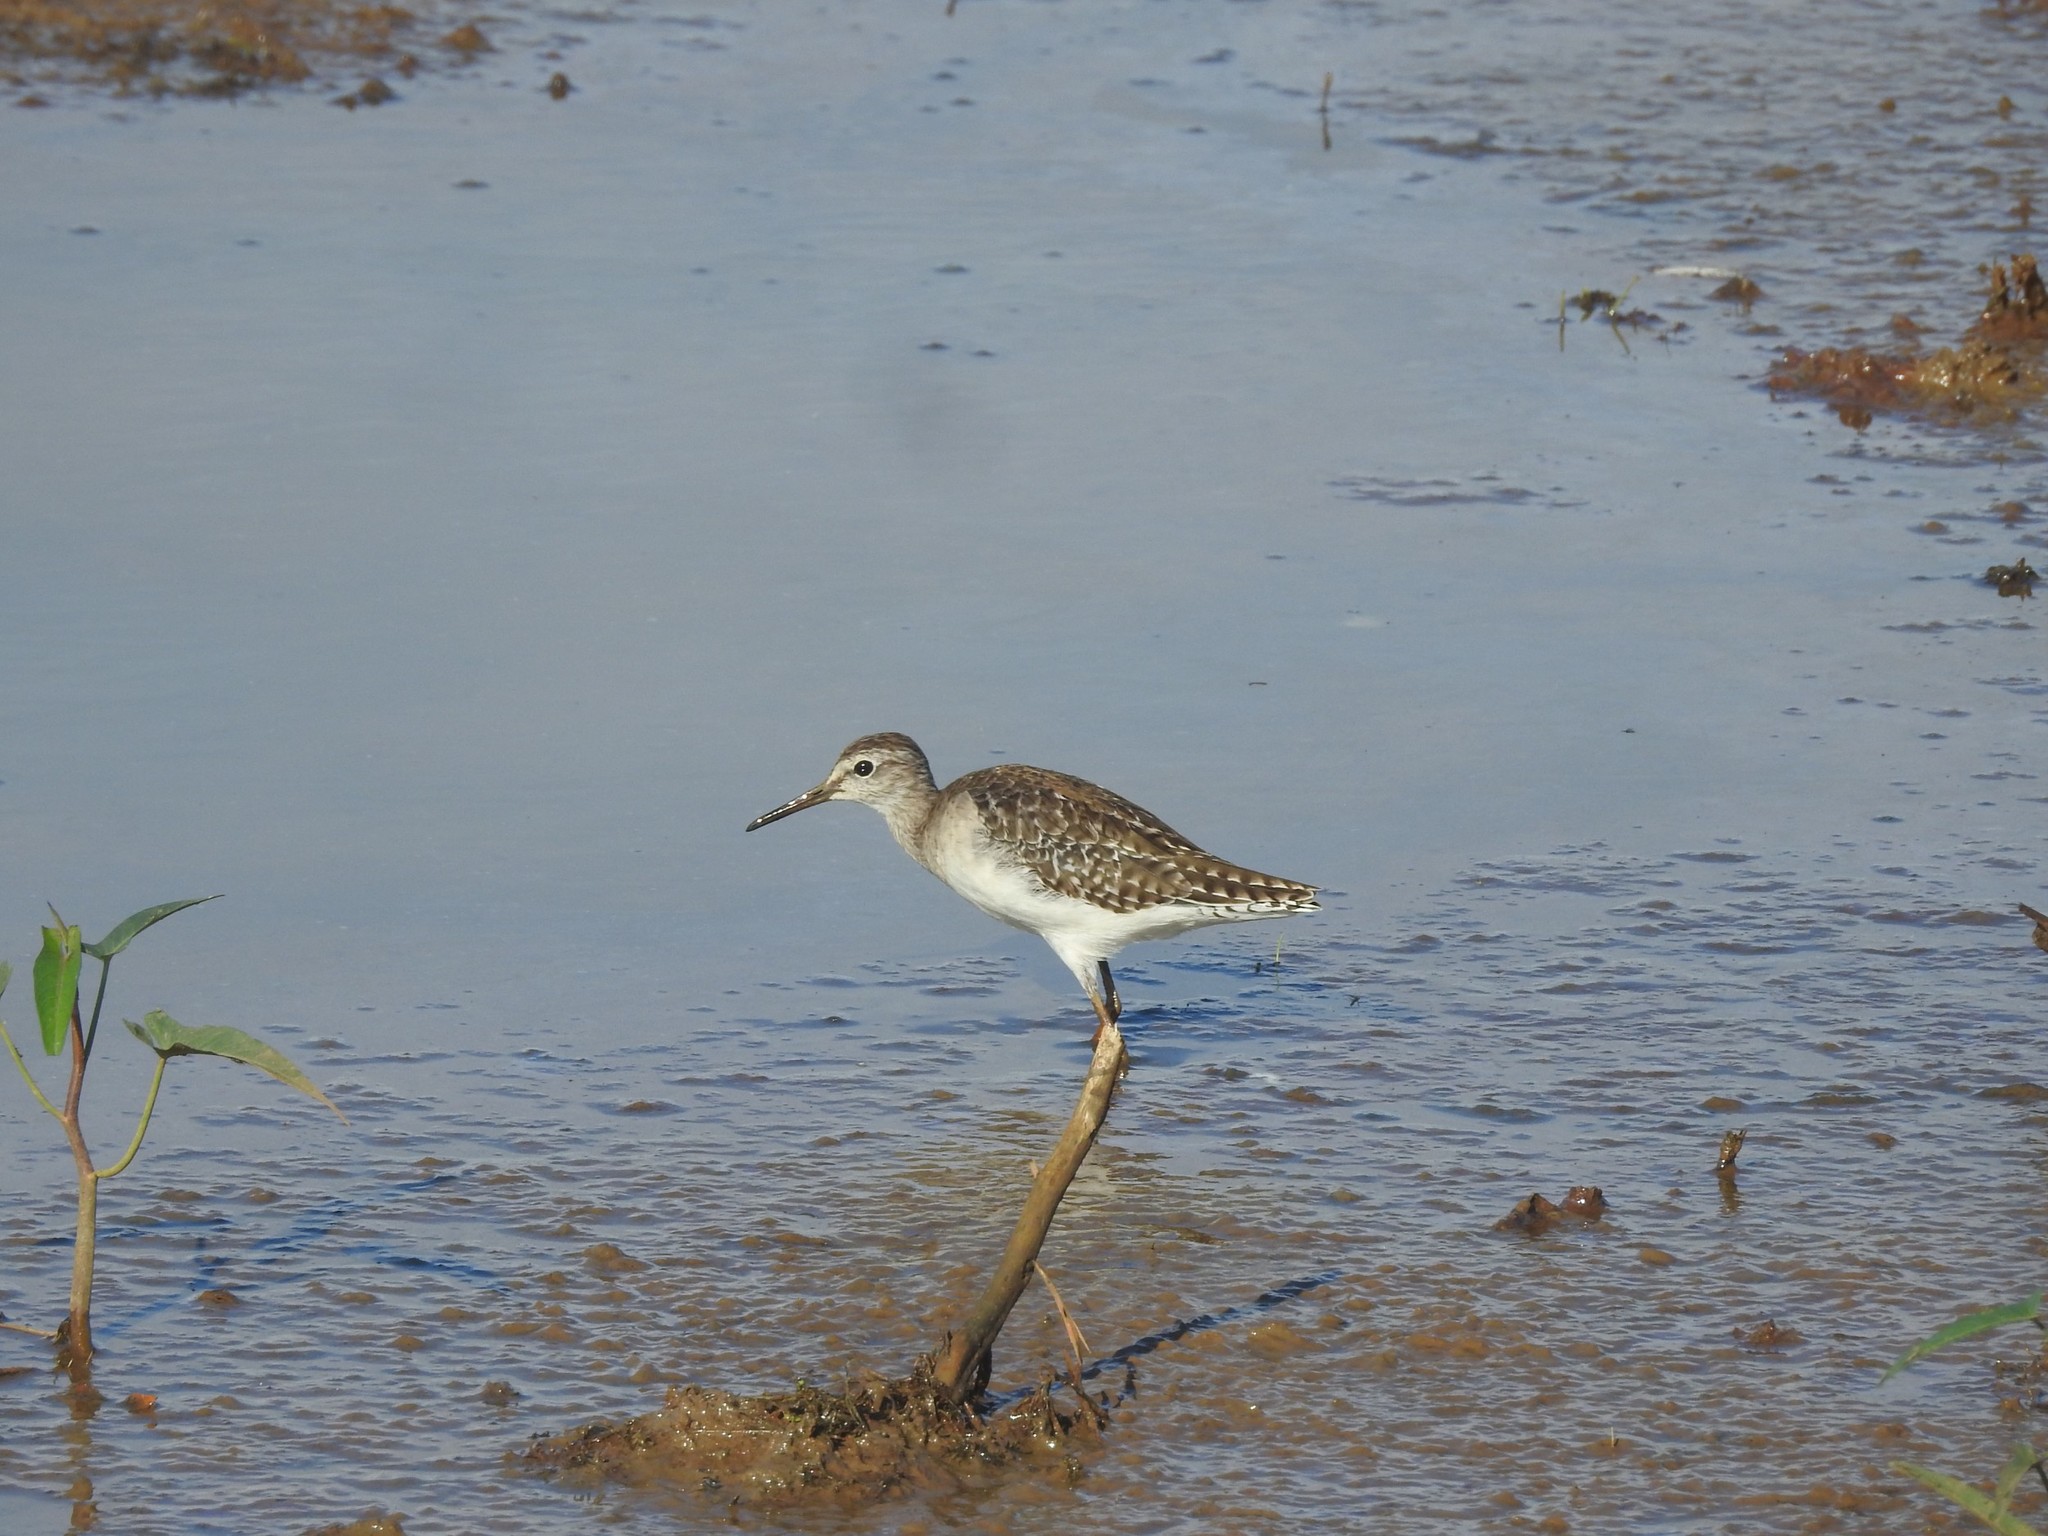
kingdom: Animalia
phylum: Chordata
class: Aves
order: Charadriiformes
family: Scolopacidae
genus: Tringa
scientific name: Tringa glareola
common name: Wood sandpiper
